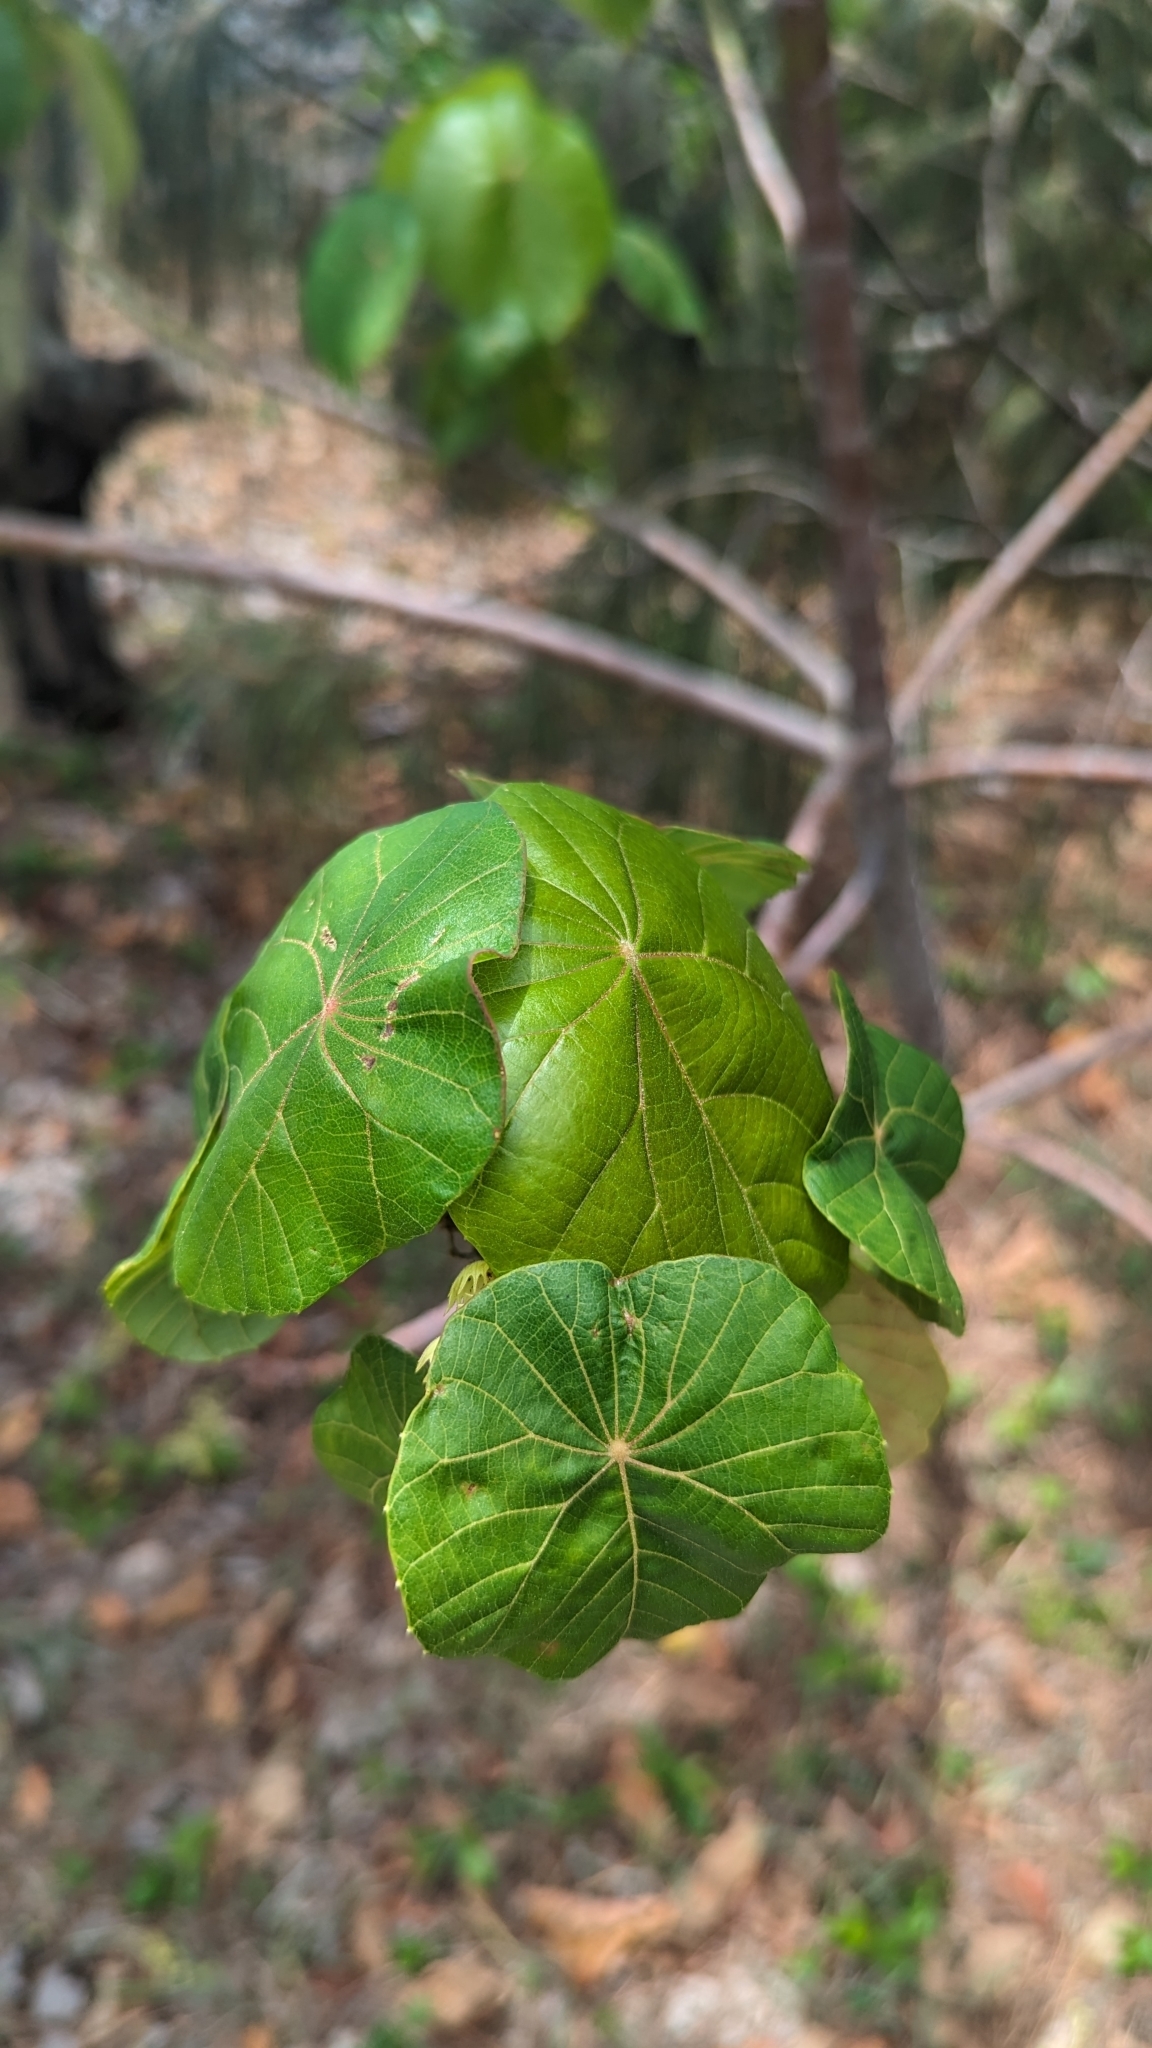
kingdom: Plantae
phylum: Tracheophyta
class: Magnoliopsida
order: Malpighiales
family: Euphorbiaceae
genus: Macaranga
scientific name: Macaranga tanarius
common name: Parasol leaf tree
